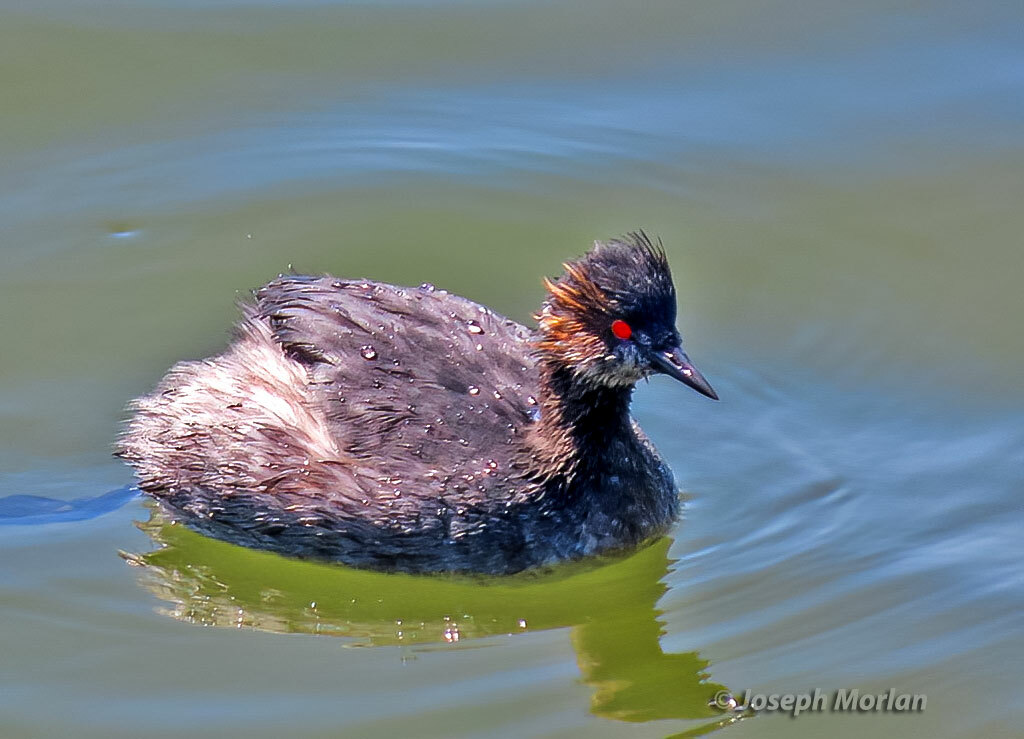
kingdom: Animalia
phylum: Chordata
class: Aves
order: Podicipediformes
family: Podicipedidae
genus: Podiceps
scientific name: Podiceps nigricollis
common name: Black-necked grebe
